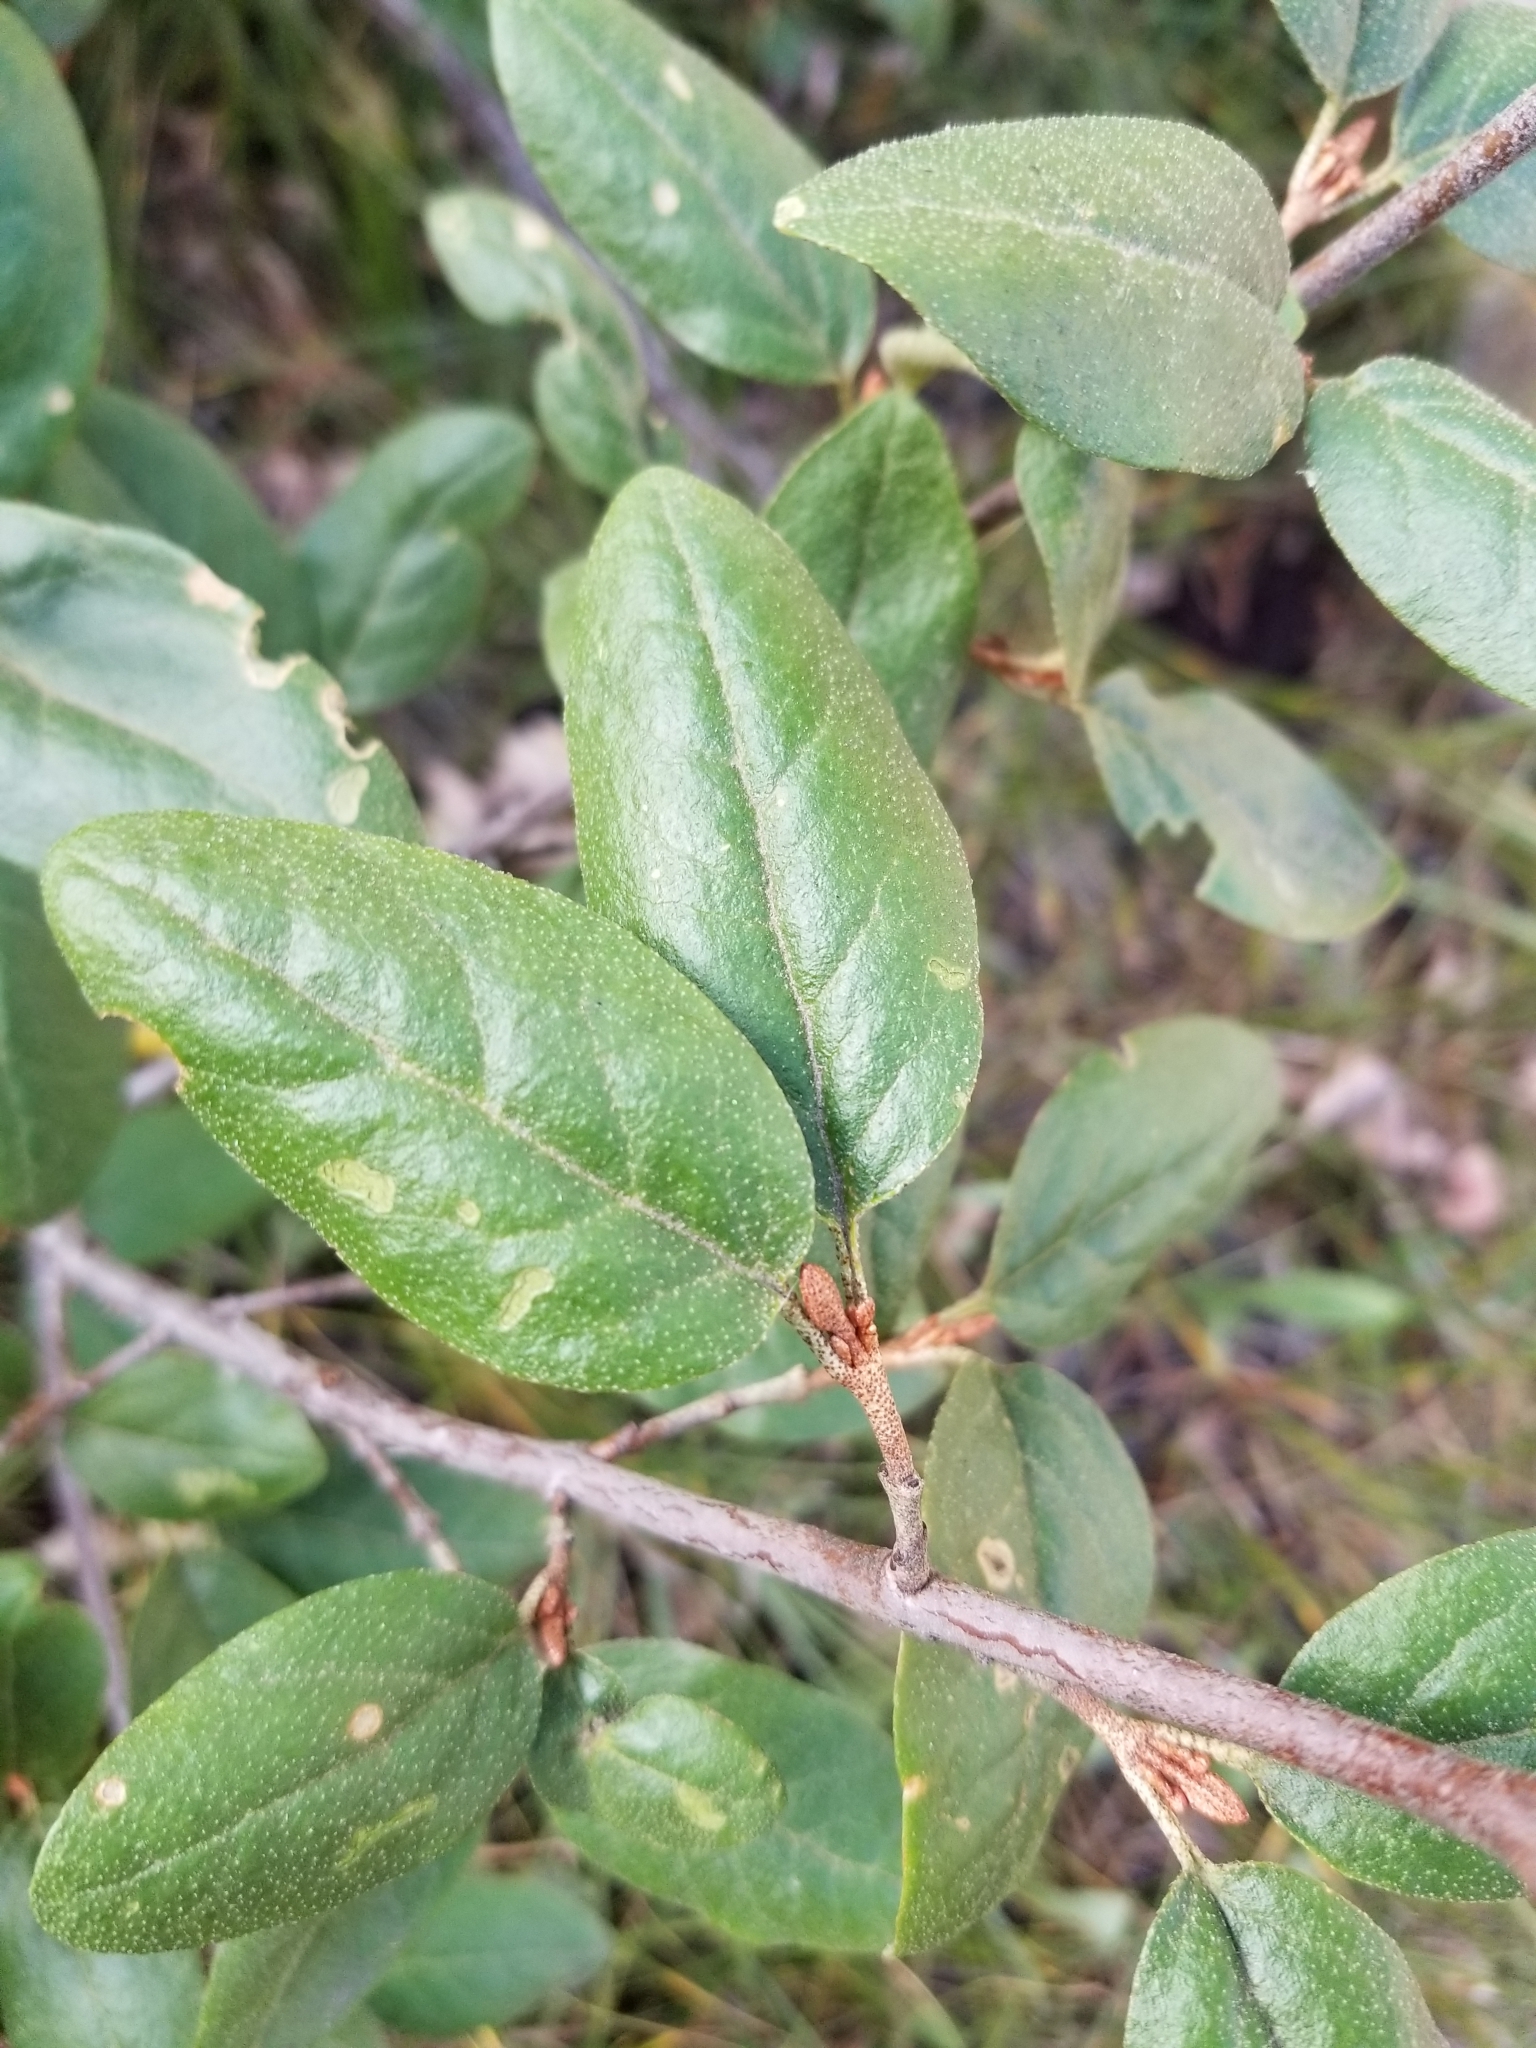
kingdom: Plantae
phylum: Tracheophyta
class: Magnoliopsida
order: Rosales
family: Elaeagnaceae
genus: Shepherdia
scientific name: Shepherdia canadensis
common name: Soapberry
